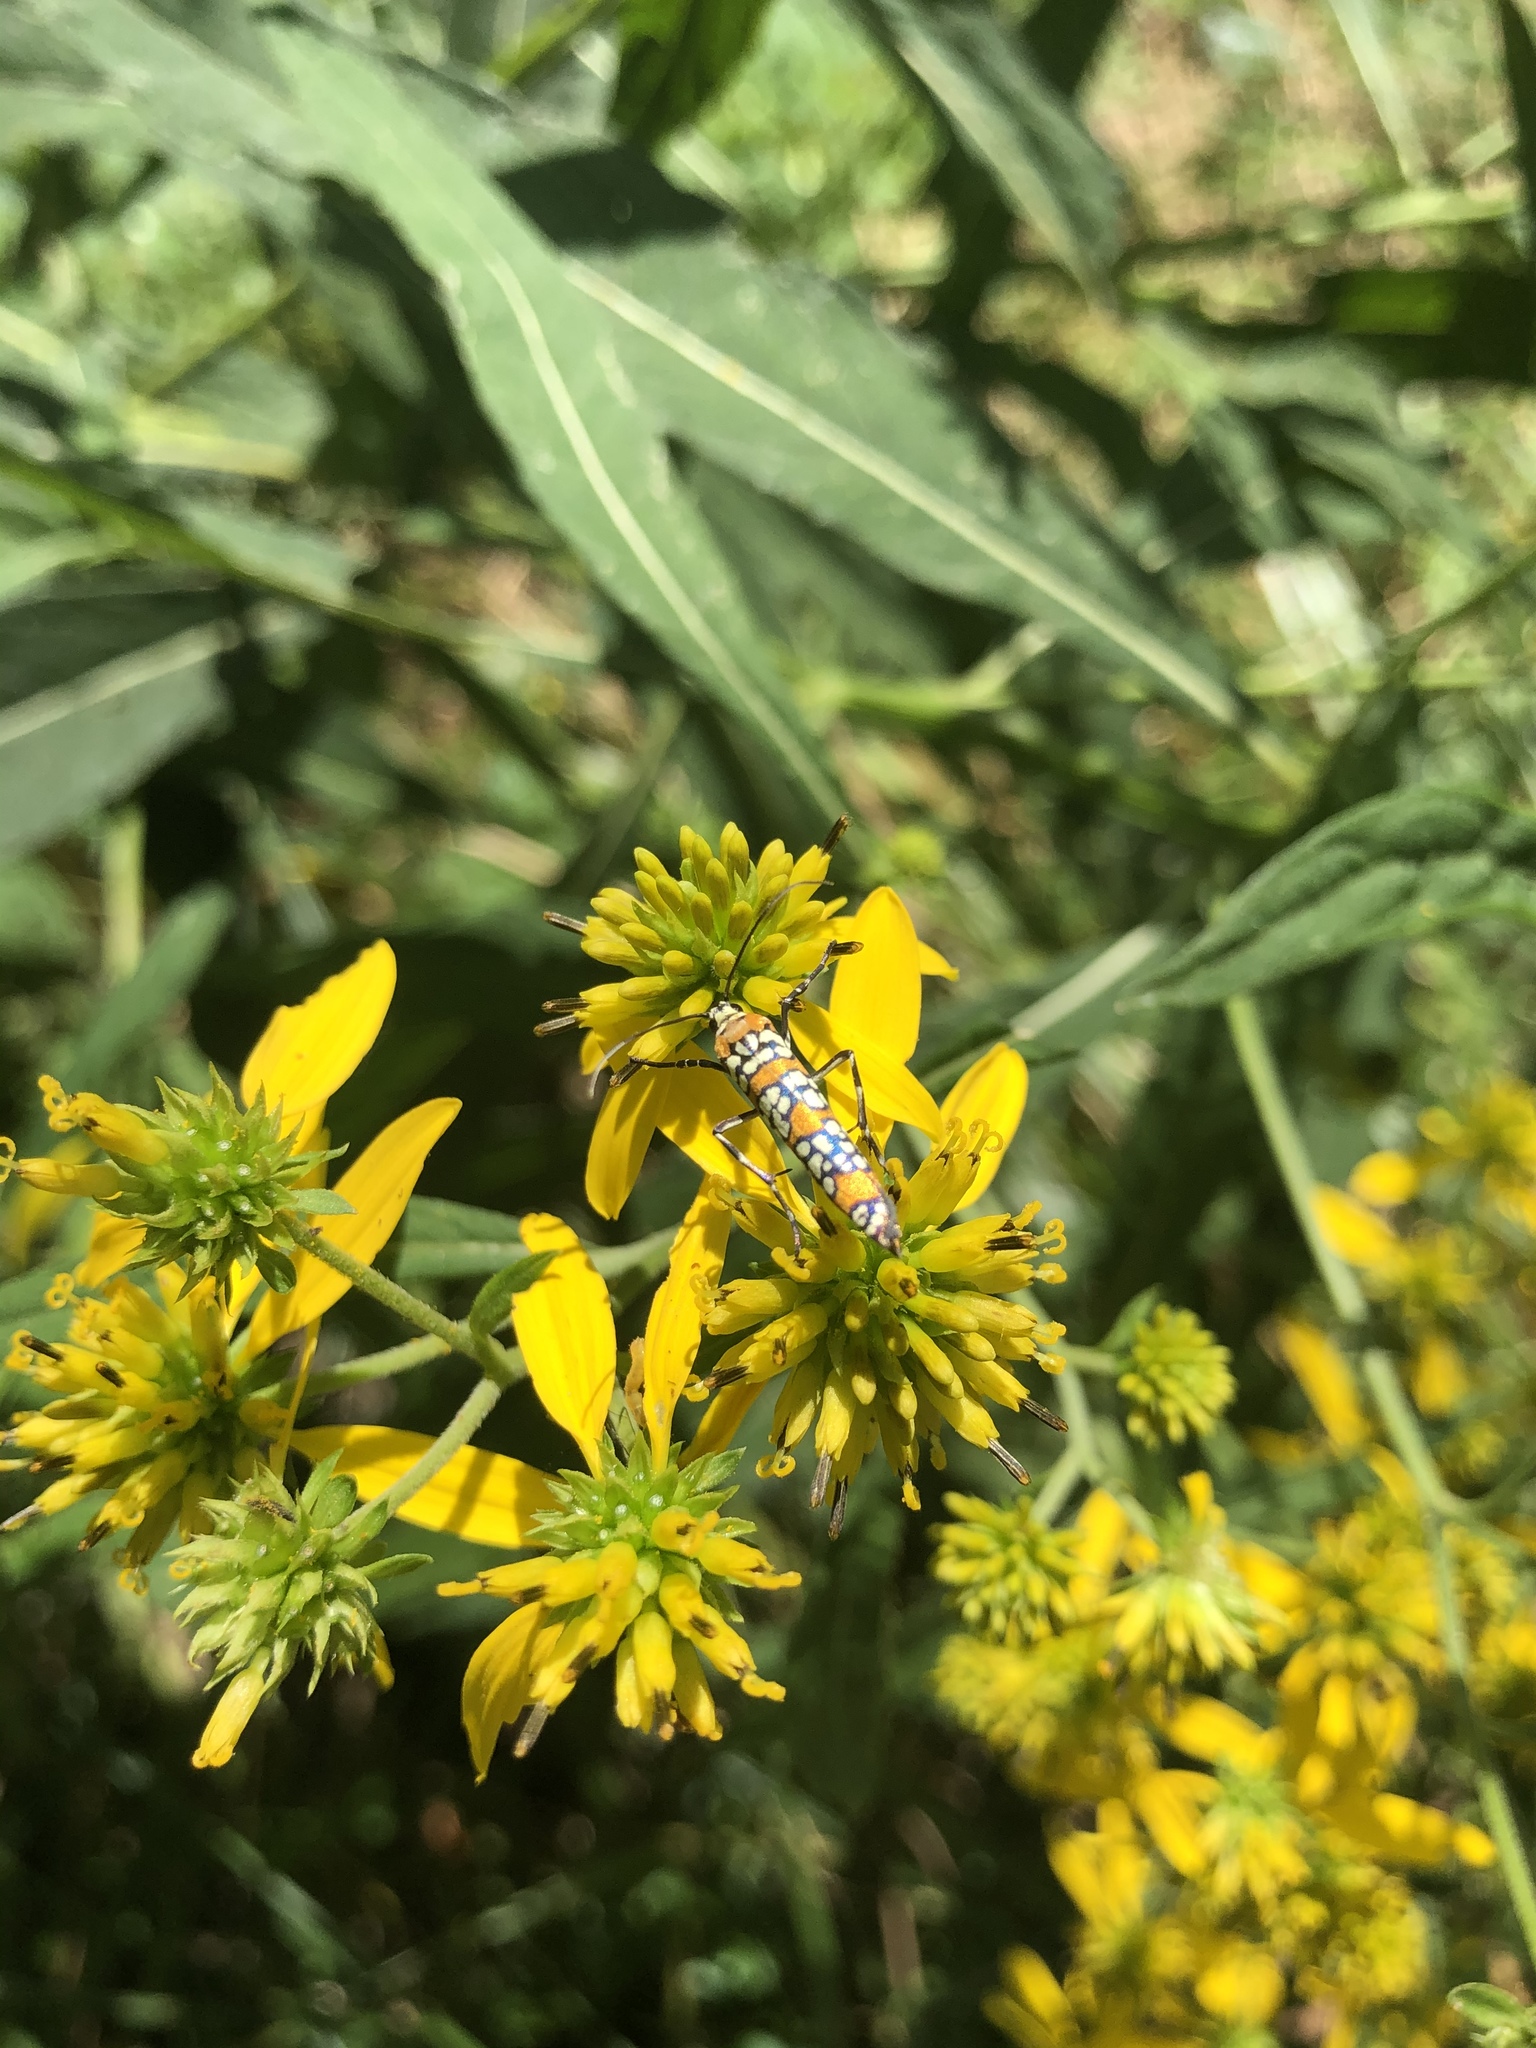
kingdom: Animalia
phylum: Arthropoda
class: Insecta
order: Lepidoptera
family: Attevidae
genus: Atteva
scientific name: Atteva punctella
